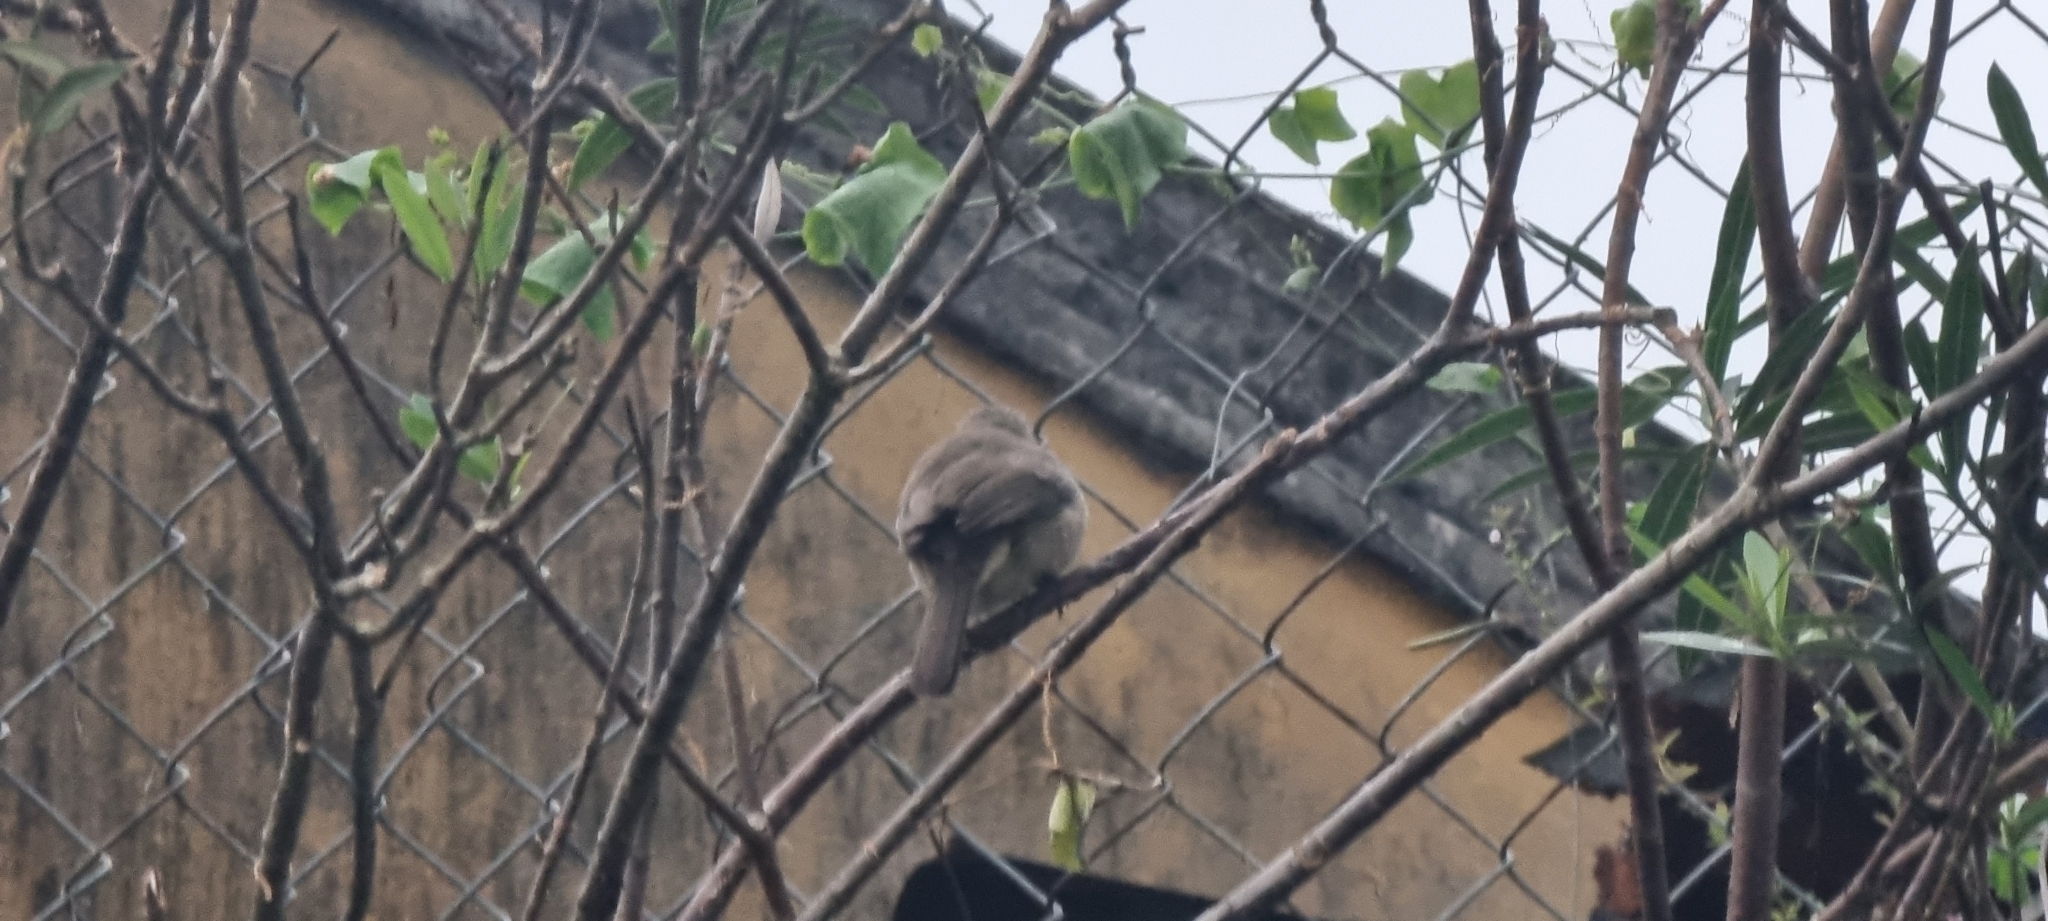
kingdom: Animalia
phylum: Chordata
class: Aves
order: Passeriformes
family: Pycnonotidae
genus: Pycnonotus
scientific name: Pycnonotus blanfordi
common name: Streak-eared bulbul
